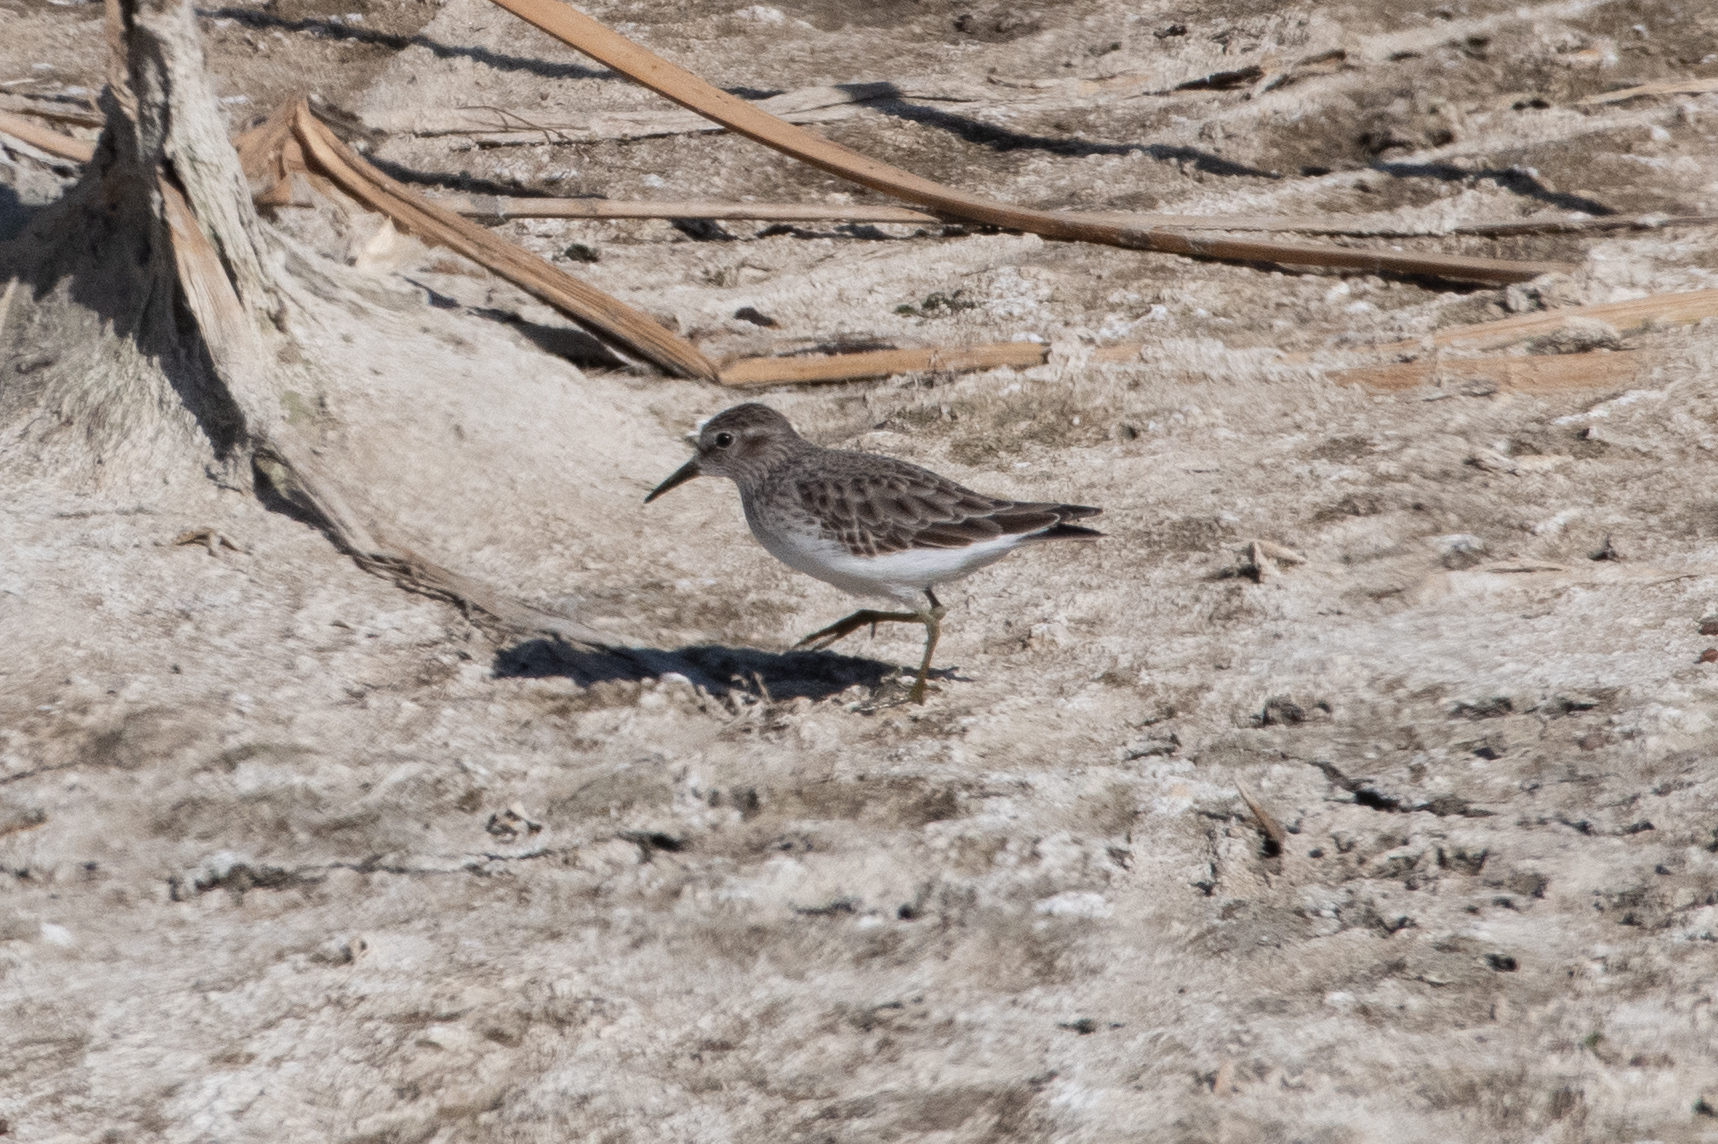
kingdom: Animalia
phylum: Chordata
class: Aves
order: Charadriiformes
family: Scolopacidae
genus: Calidris
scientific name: Calidris minutilla
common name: Least sandpiper
